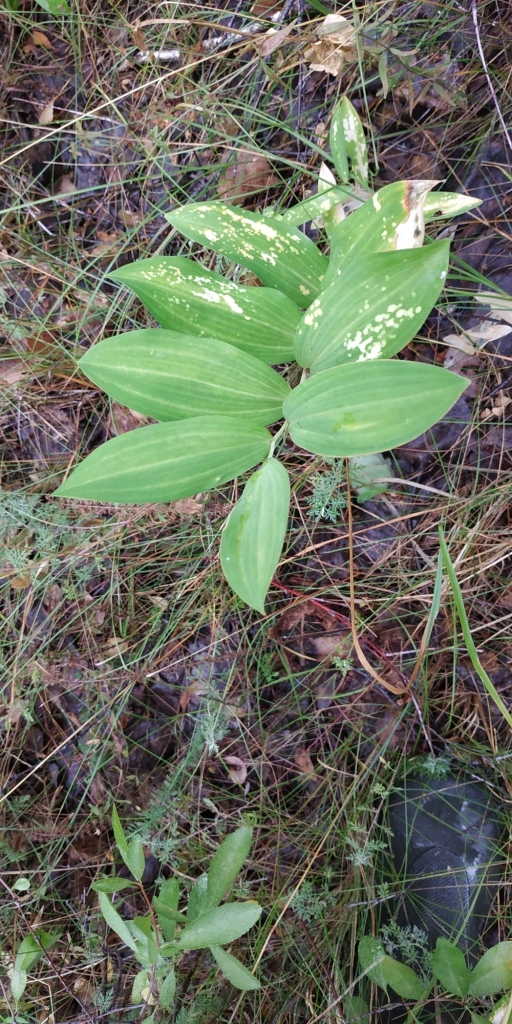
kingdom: Plantae
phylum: Tracheophyta
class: Liliopsida
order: Asparagales
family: Asparagaceae
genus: Polygonatum
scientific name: Polygonatum odoratum
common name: Angular solomon's-seal
